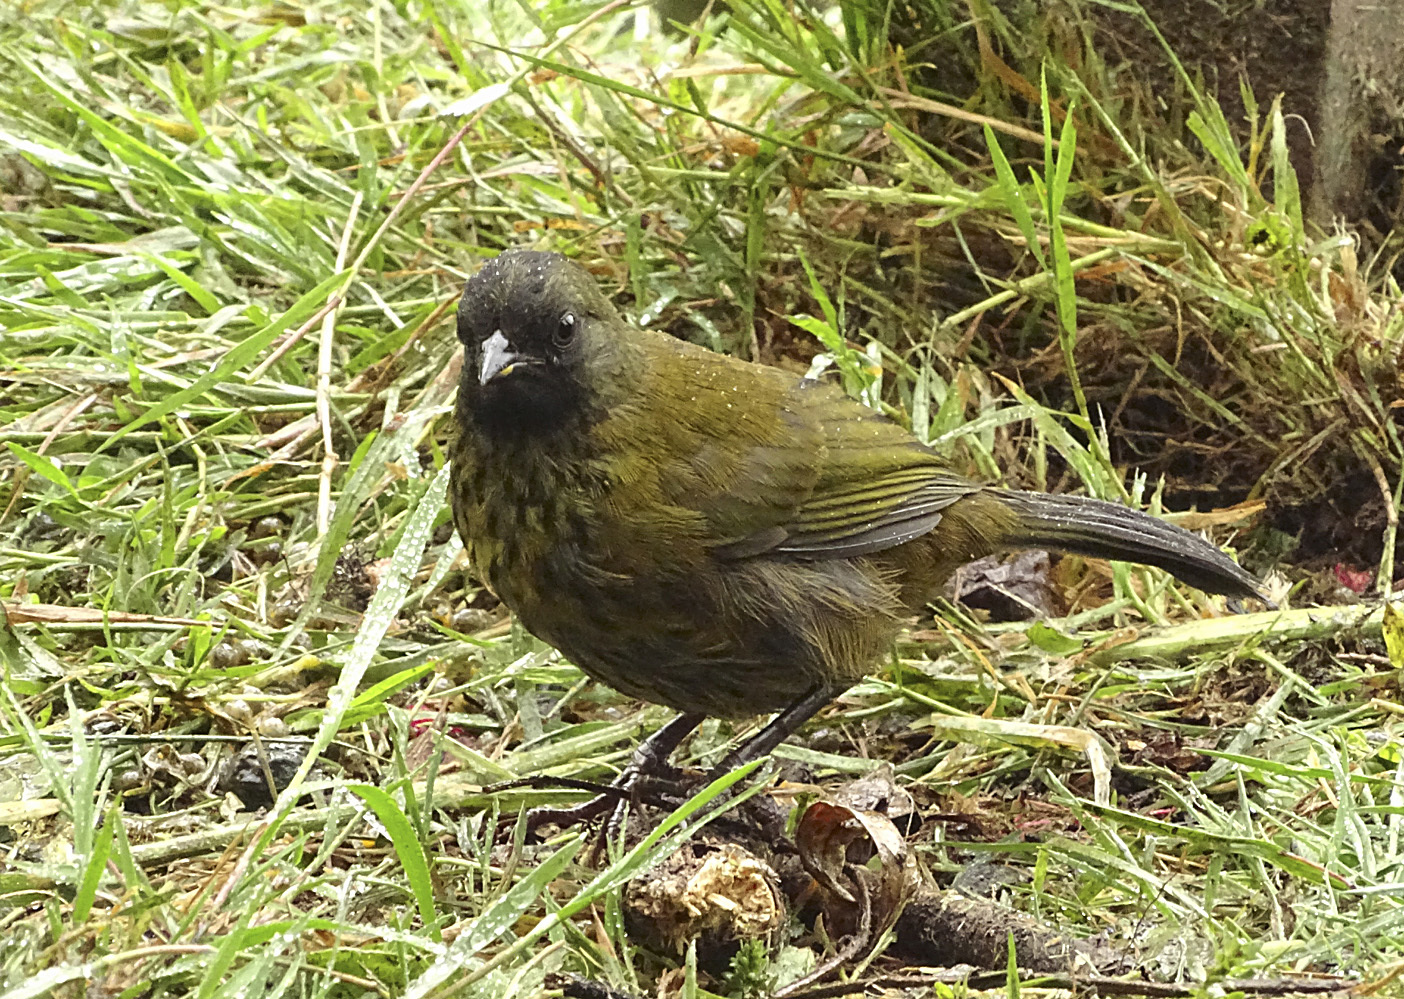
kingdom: Animalia
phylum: Chordata
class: Aves
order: Passeriformes
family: Passerellidae
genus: Pezopetes
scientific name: Pezopetes capitalis
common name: Large-footed finch
